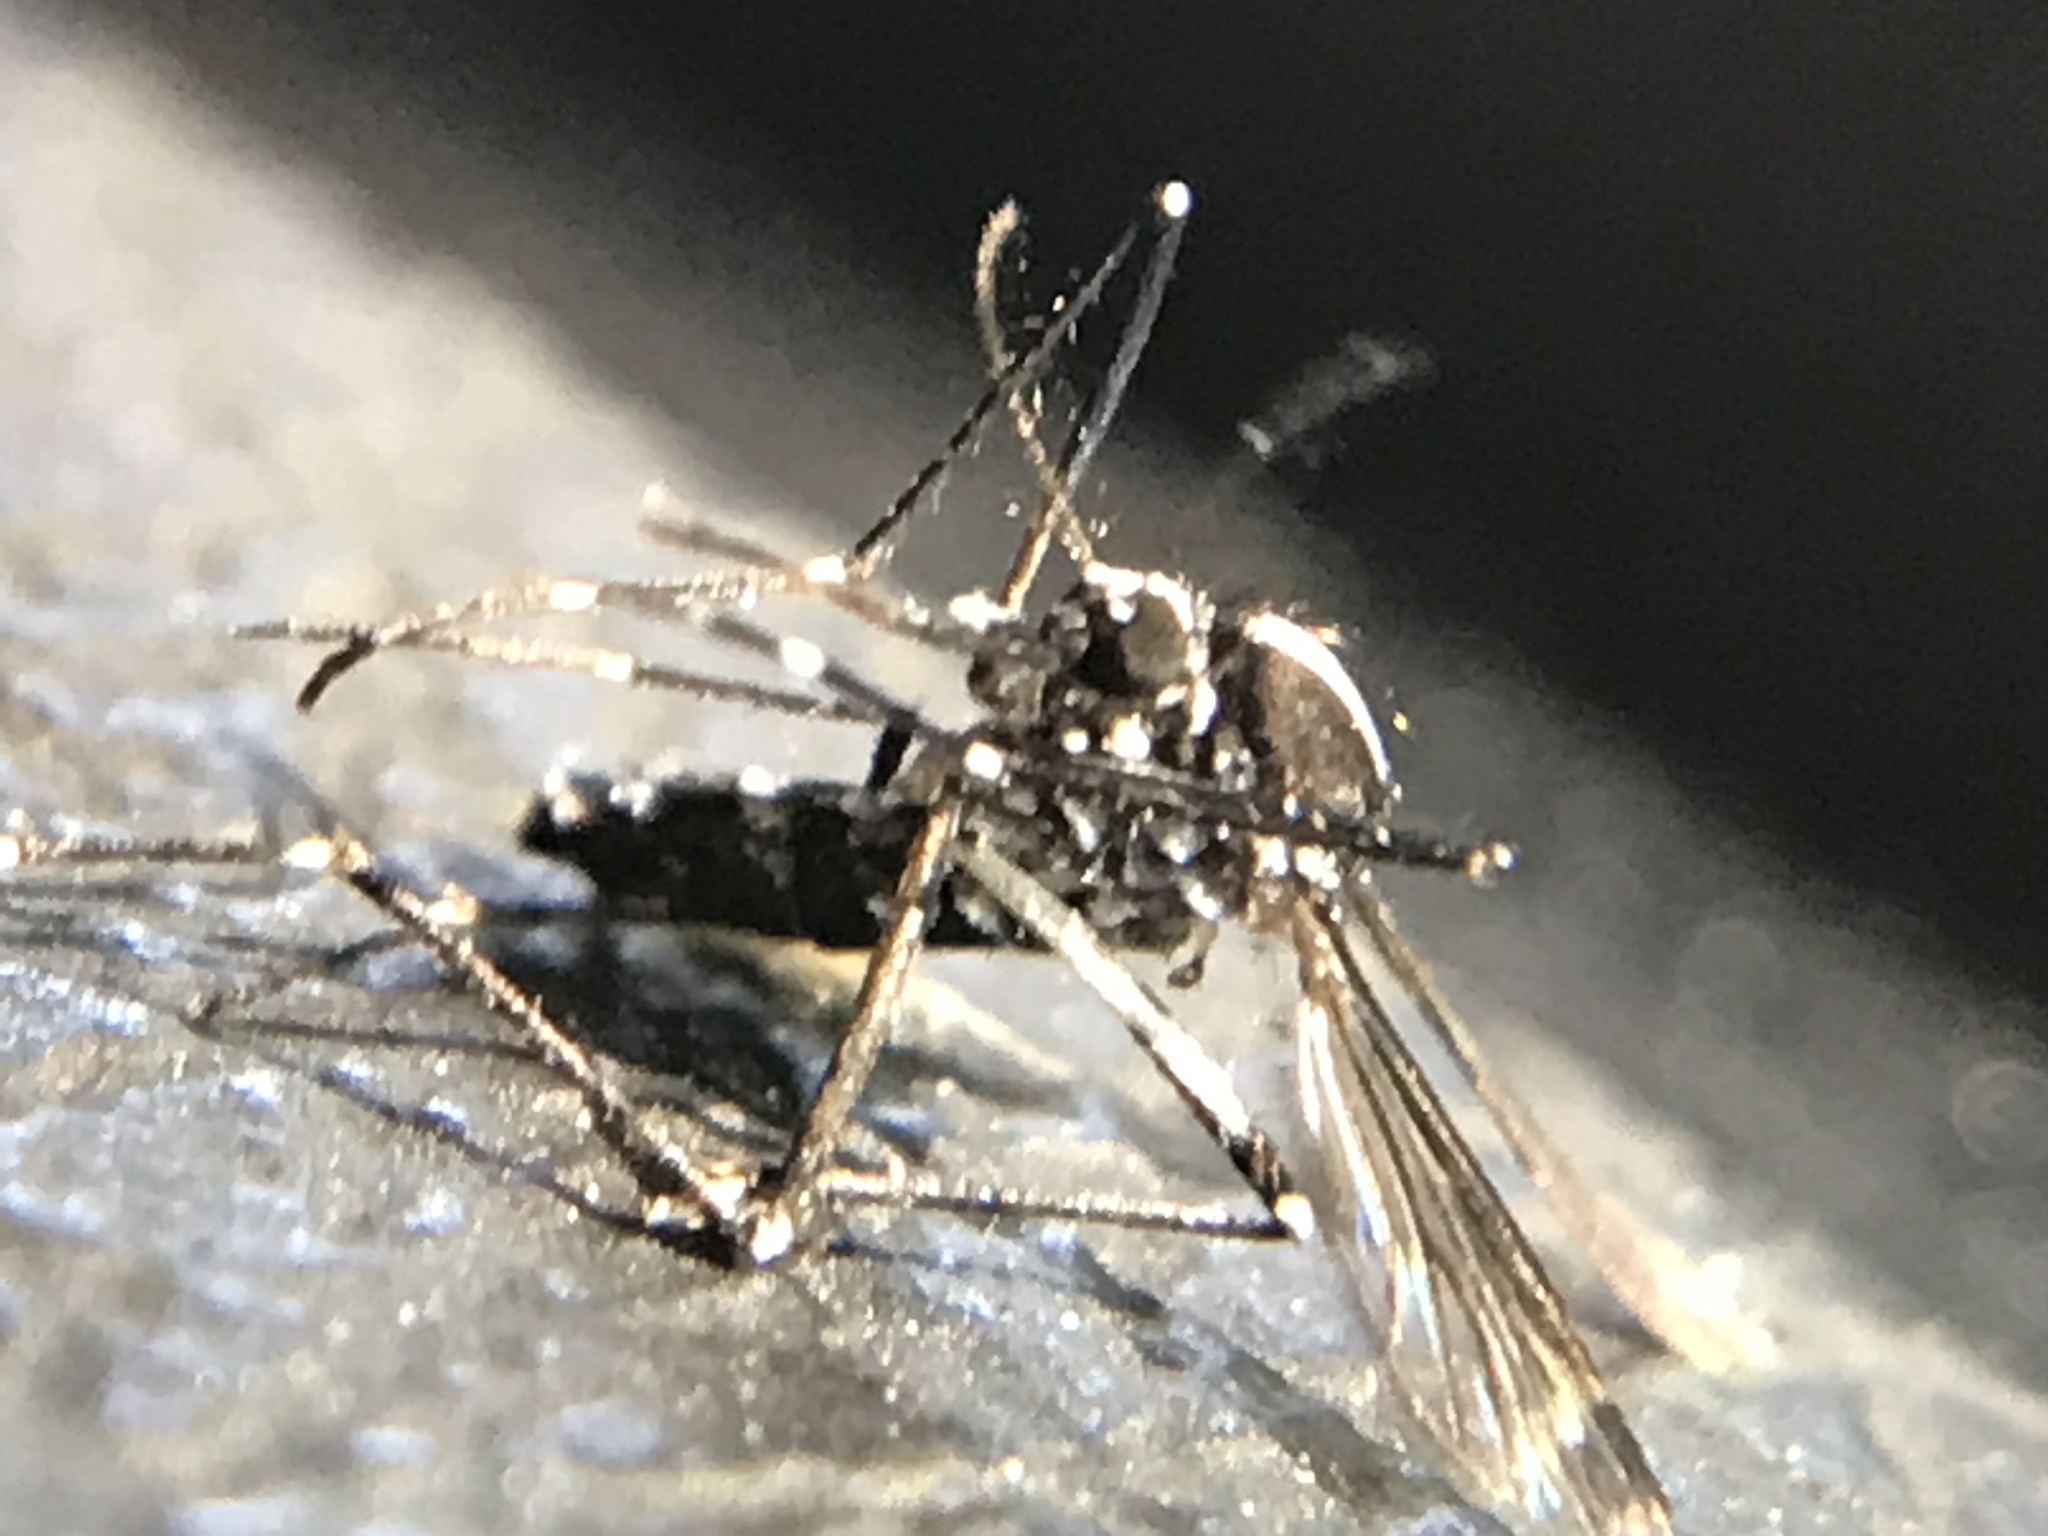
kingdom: Animalia
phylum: Arthropoda
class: Insecta
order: Diptera
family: Culicidae
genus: Aedes
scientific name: Aedes albopictus
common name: Tiger mosquito
